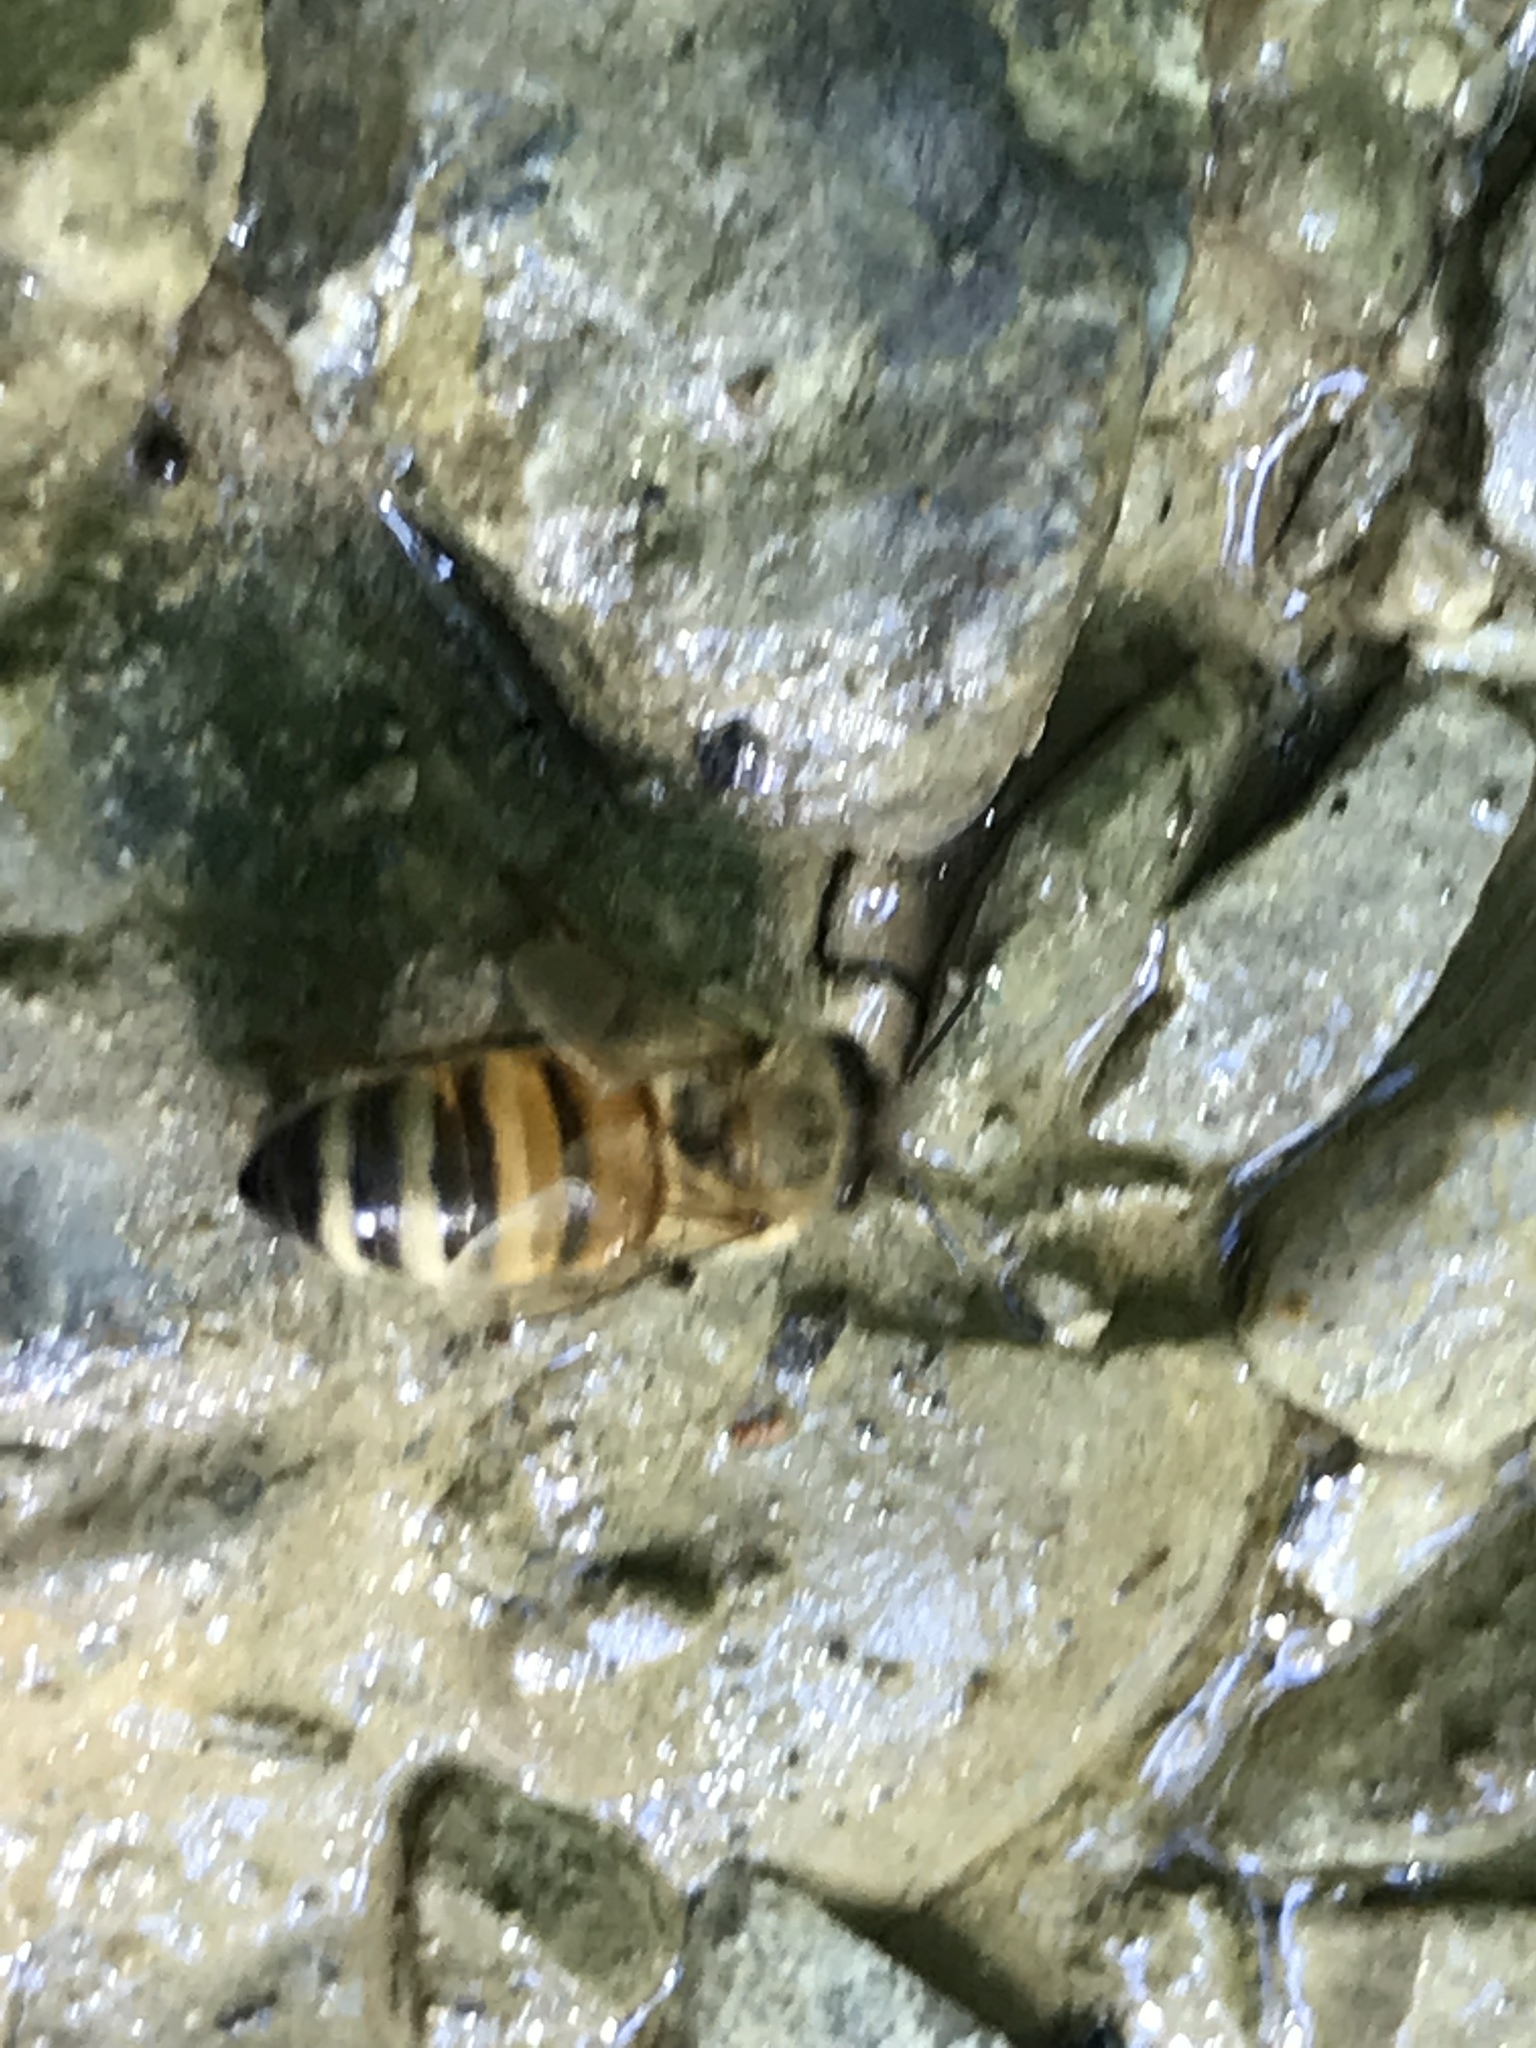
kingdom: Animalia
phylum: Arthropoda
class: Insecta
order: Hymenoptera
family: Apidae
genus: Apis
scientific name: Apis mellifera
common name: Honey bee
